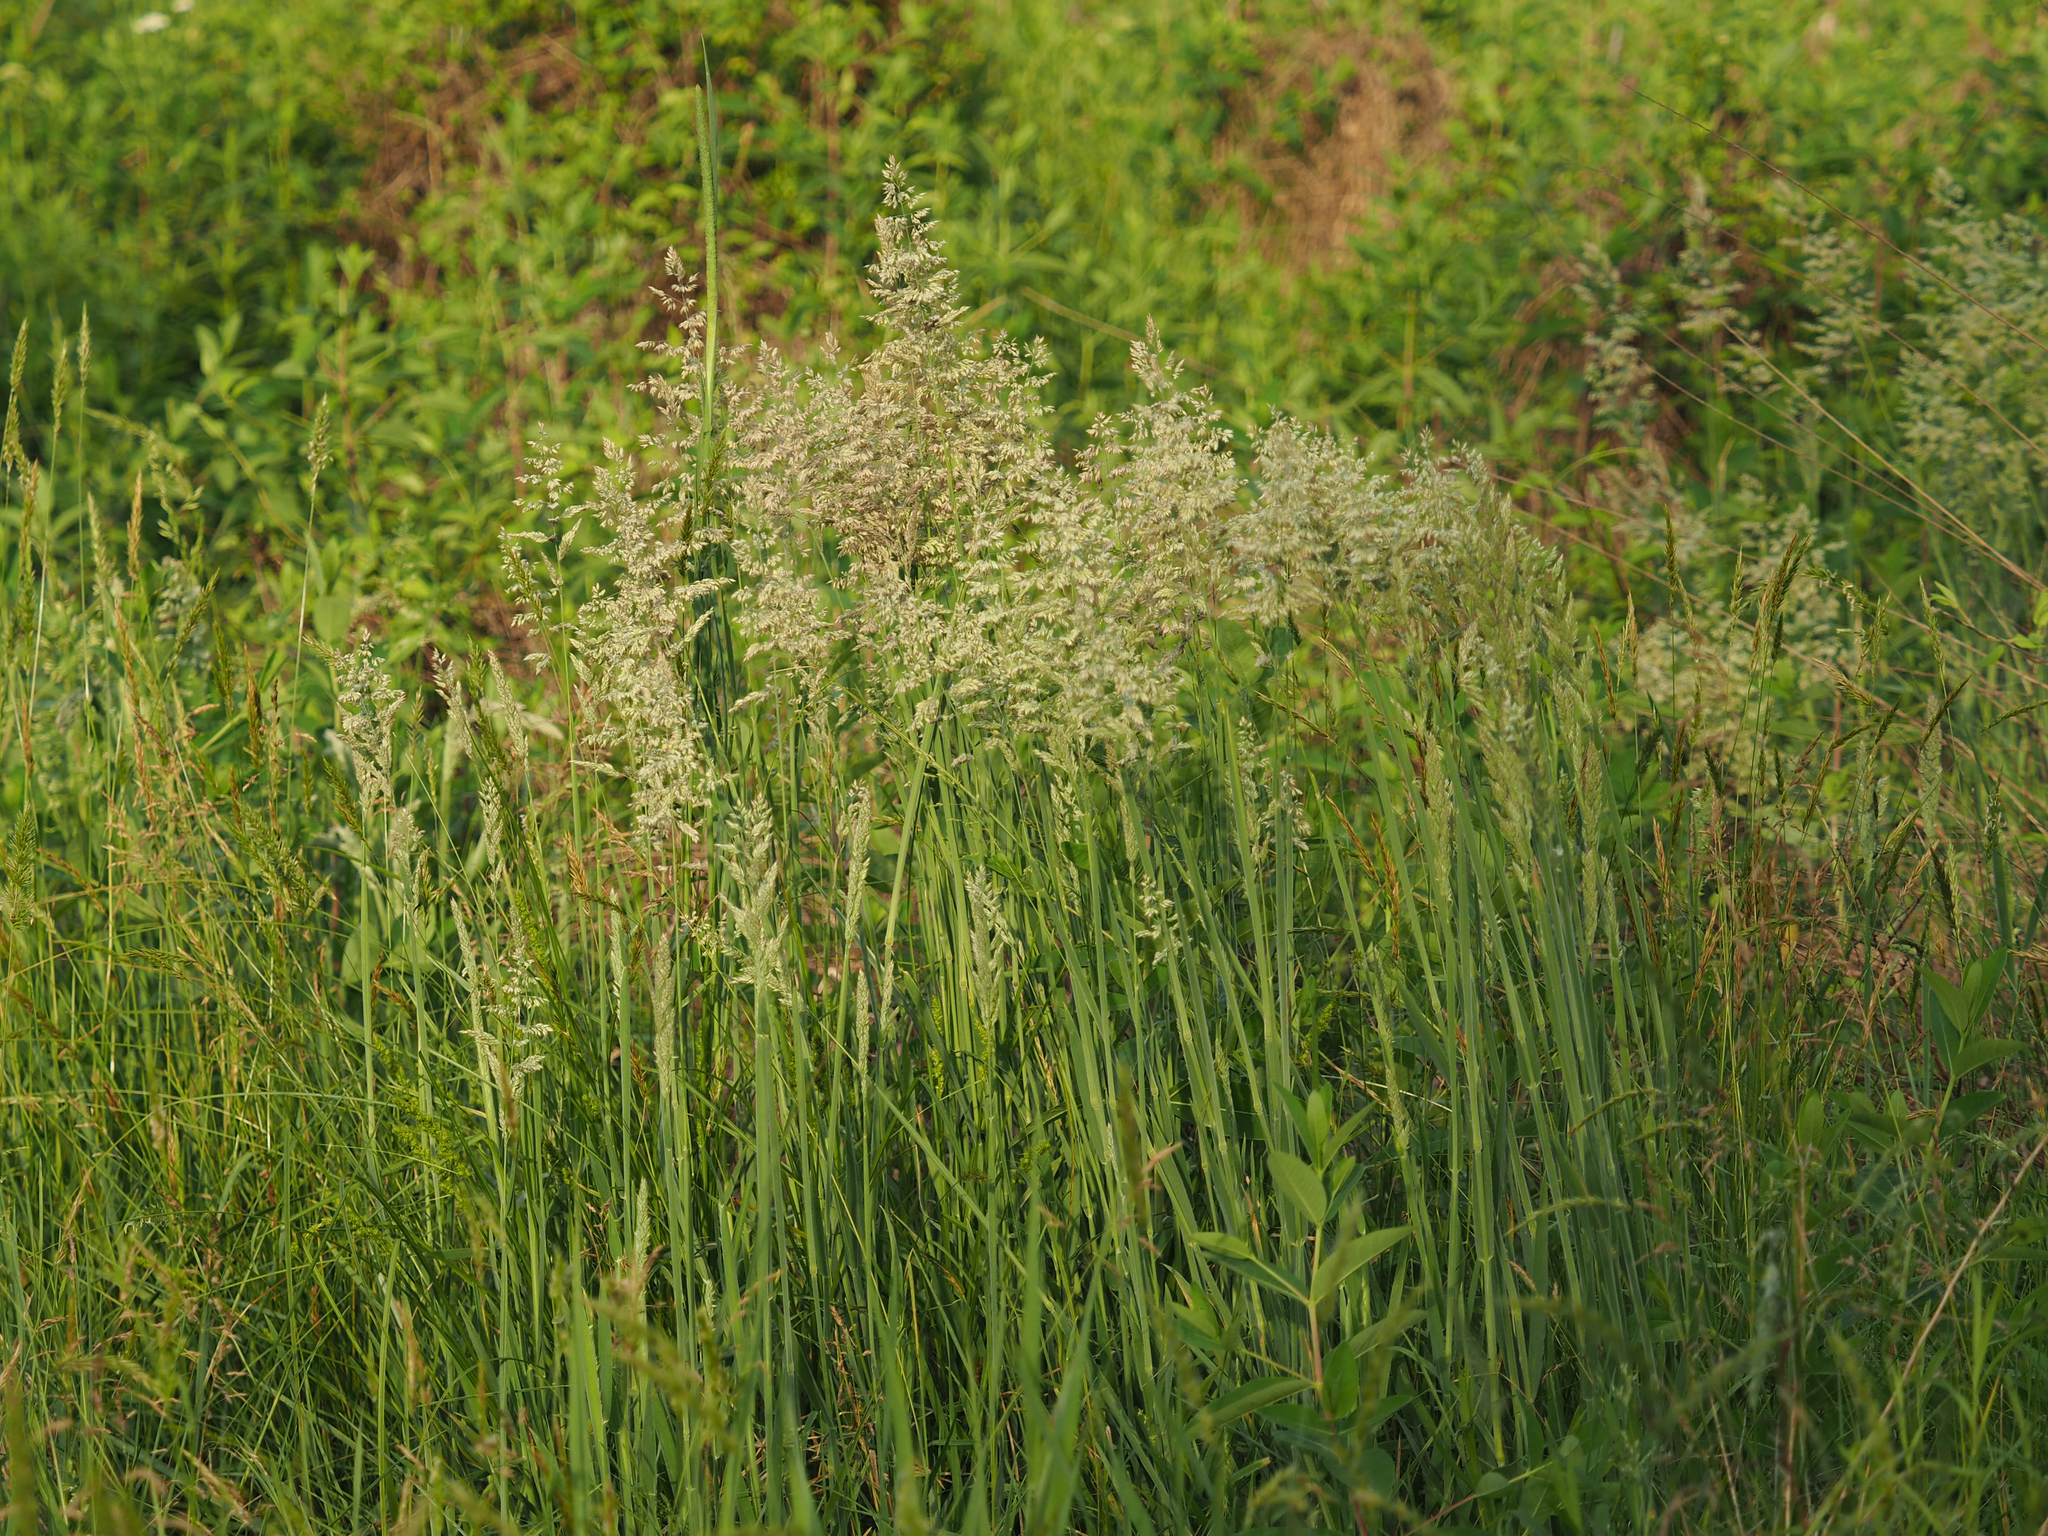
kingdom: Plantae
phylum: Tracheophyta
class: Liliopsida
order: Poales
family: Poaceae
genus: Holcus
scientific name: Holcus lanatus
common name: Yorkshire-fog
